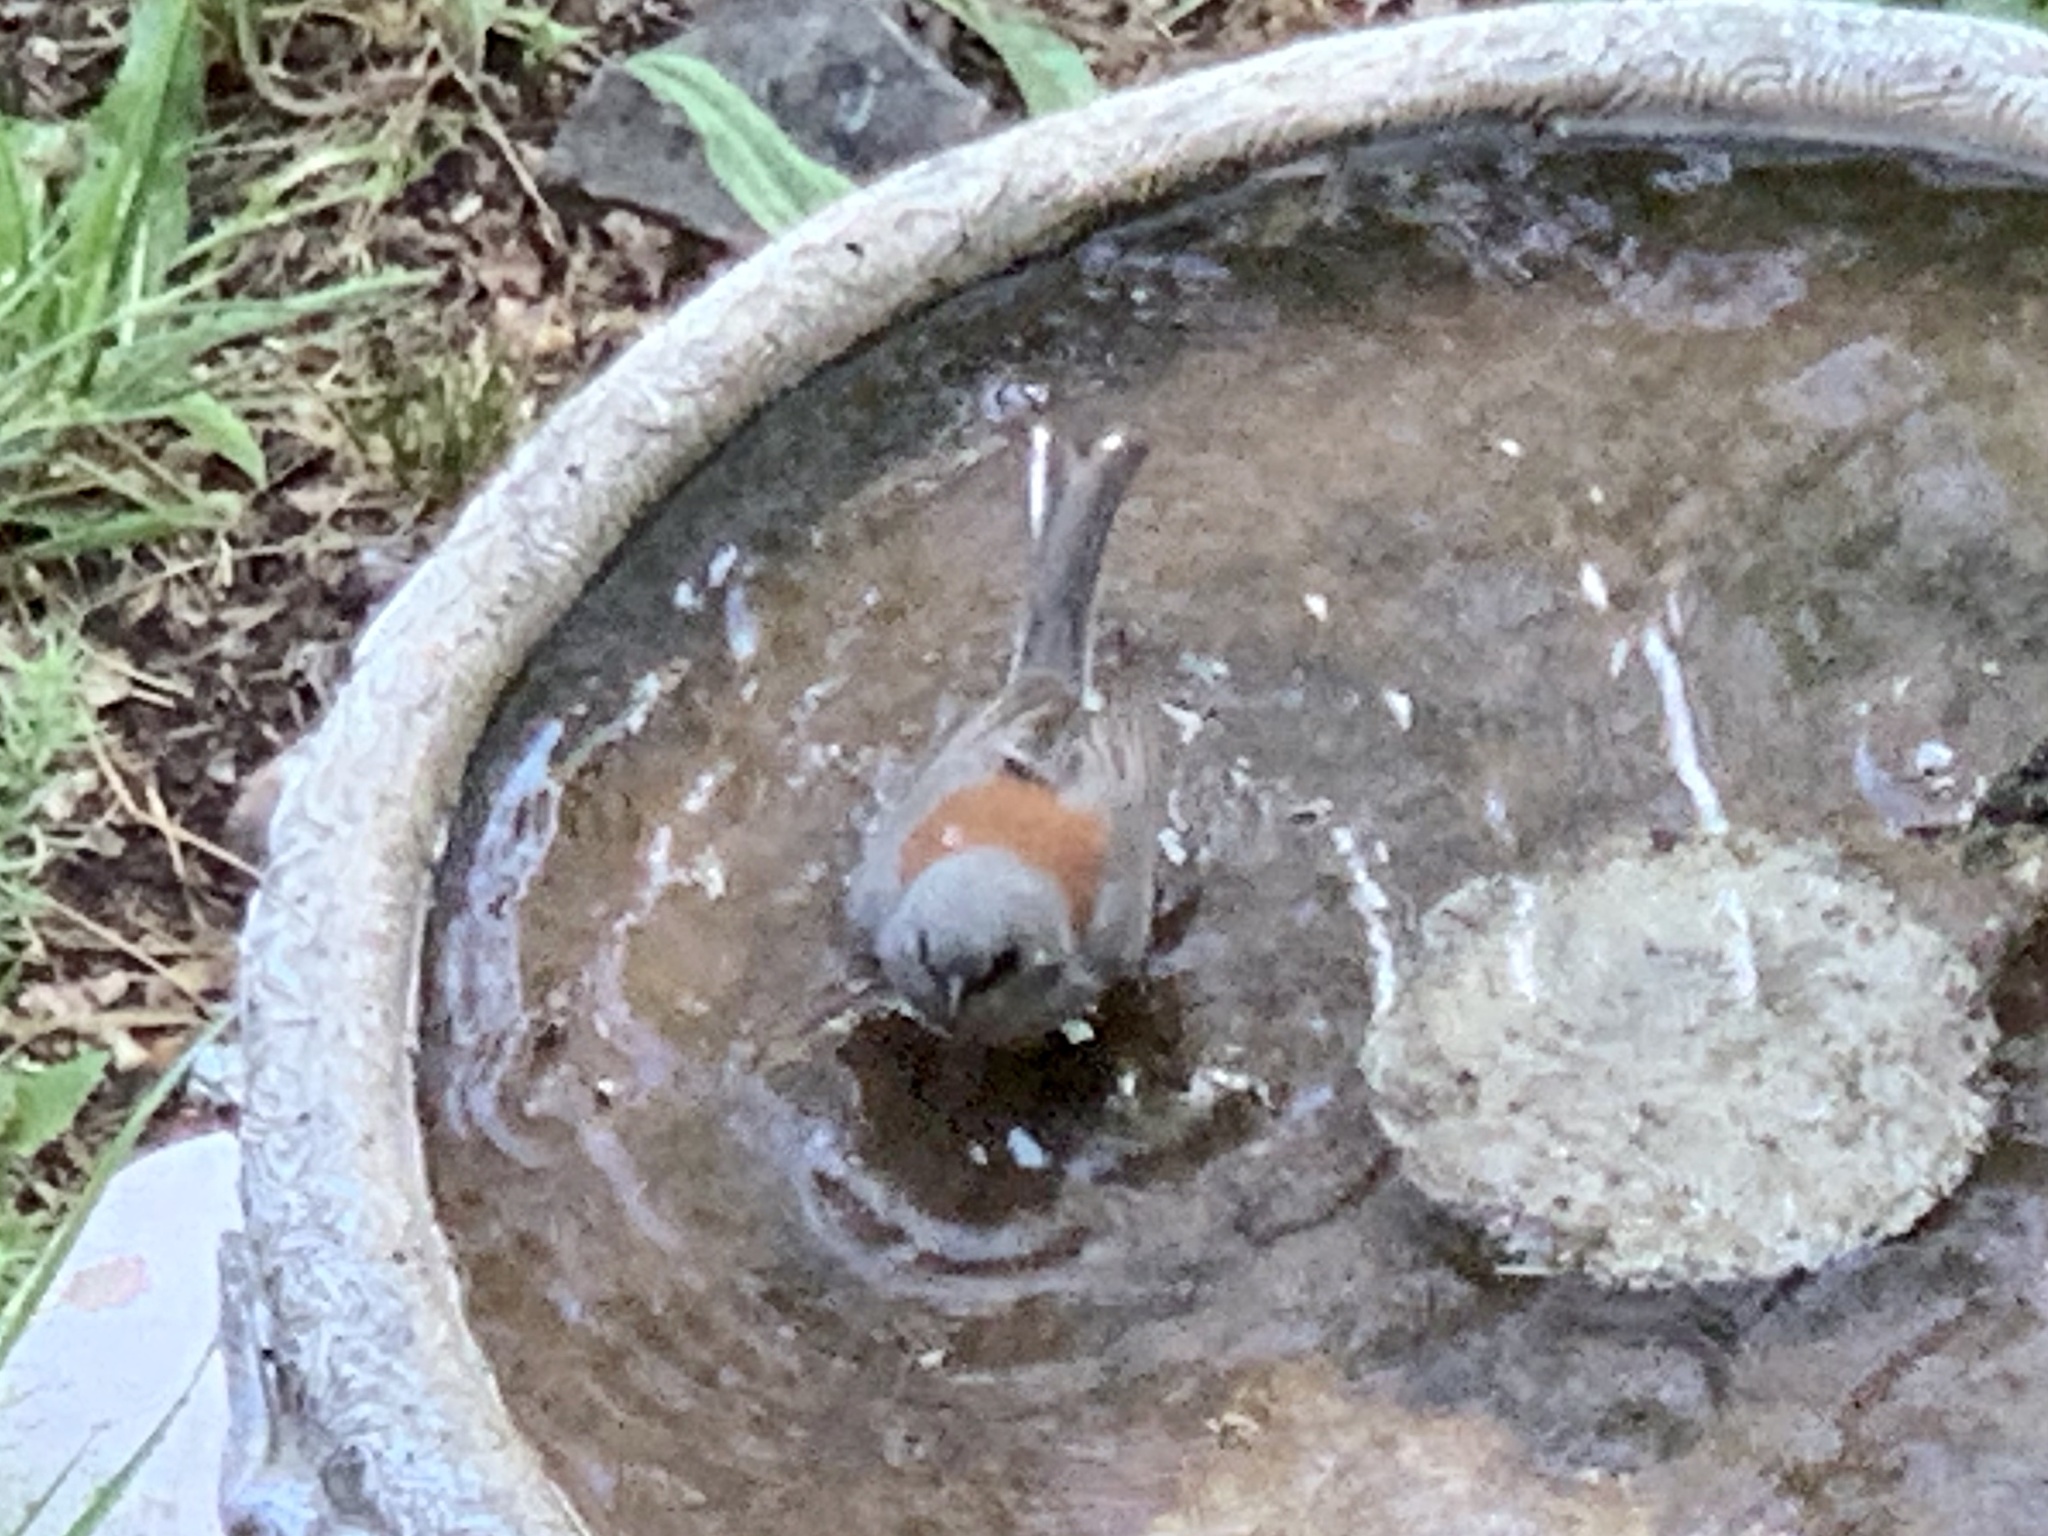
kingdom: Animalia
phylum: Chordata
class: Aves
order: Passeriformes
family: Passerellidae
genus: Junco
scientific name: Junco hyemalis
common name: Dark-eyed junco
